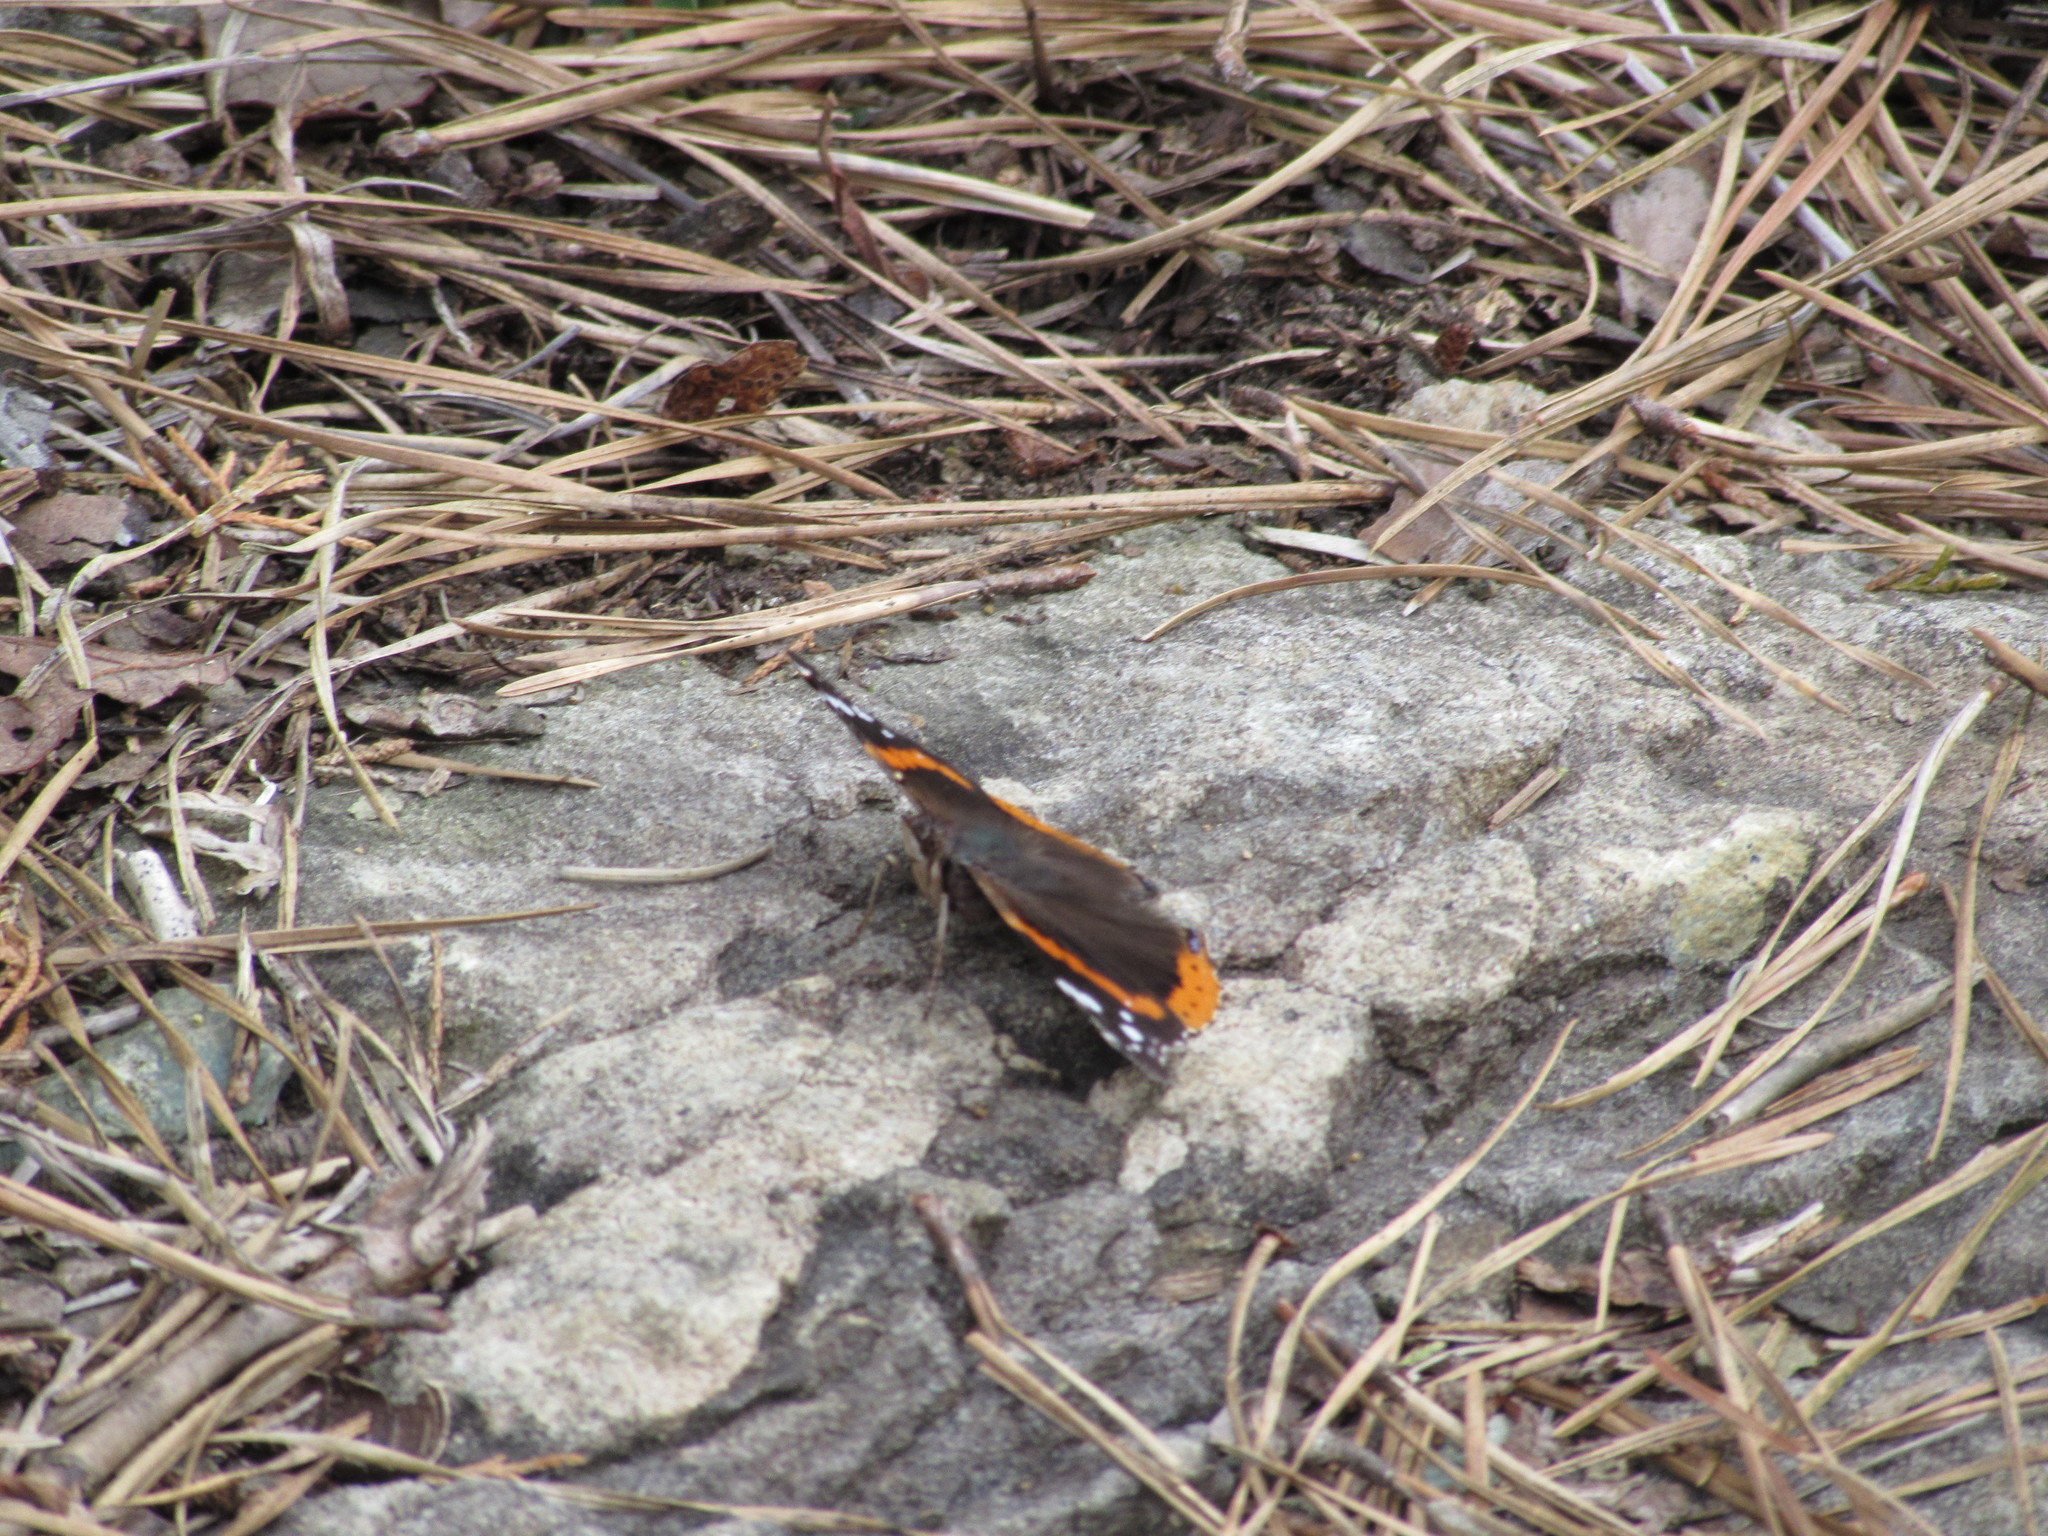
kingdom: Animalia
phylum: Arthropoda
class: Insecta
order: Lepidoptera
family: Nymphalidae
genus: Vanessa
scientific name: Vanessa atalanta
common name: Red admiral
